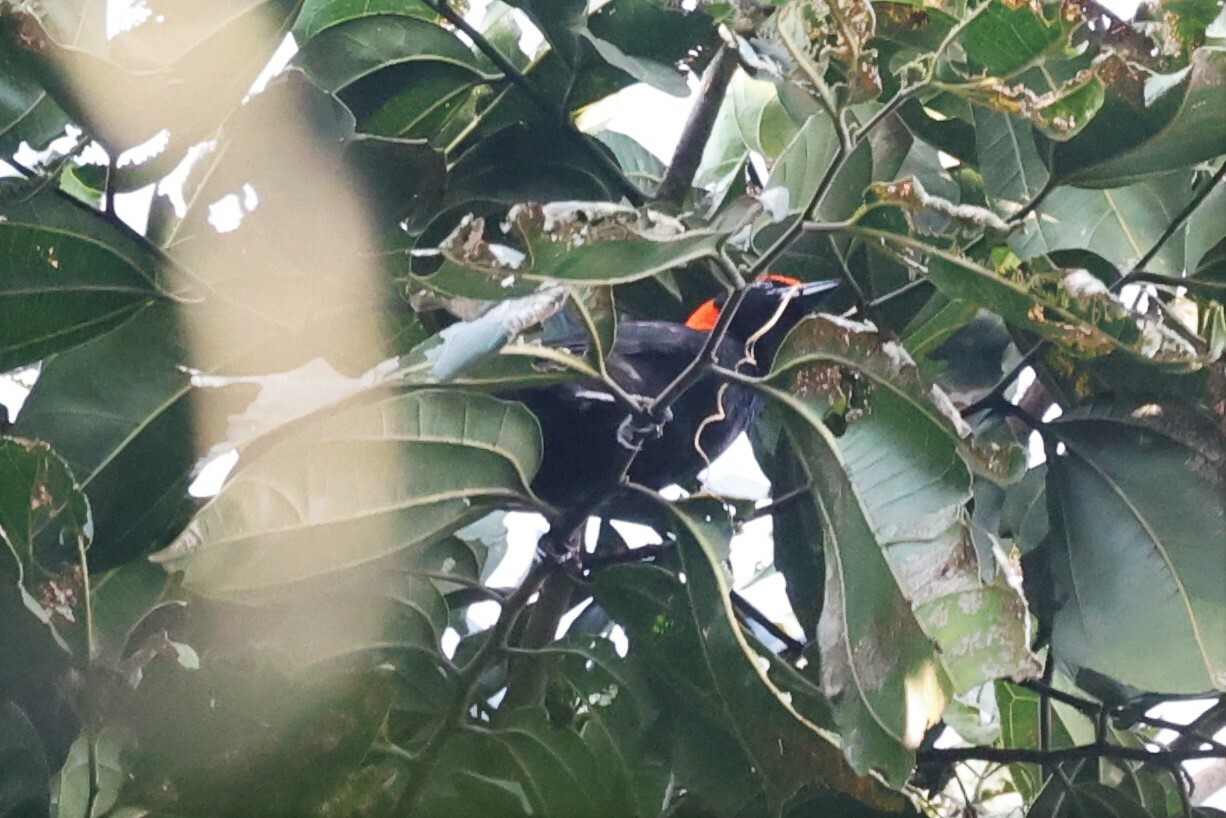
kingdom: Animalia
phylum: Chordata
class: Aves
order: Passeriformes
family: Ploceidae
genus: Malimbus
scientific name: Malimbus rubricollis
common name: Red-headed malimbe
